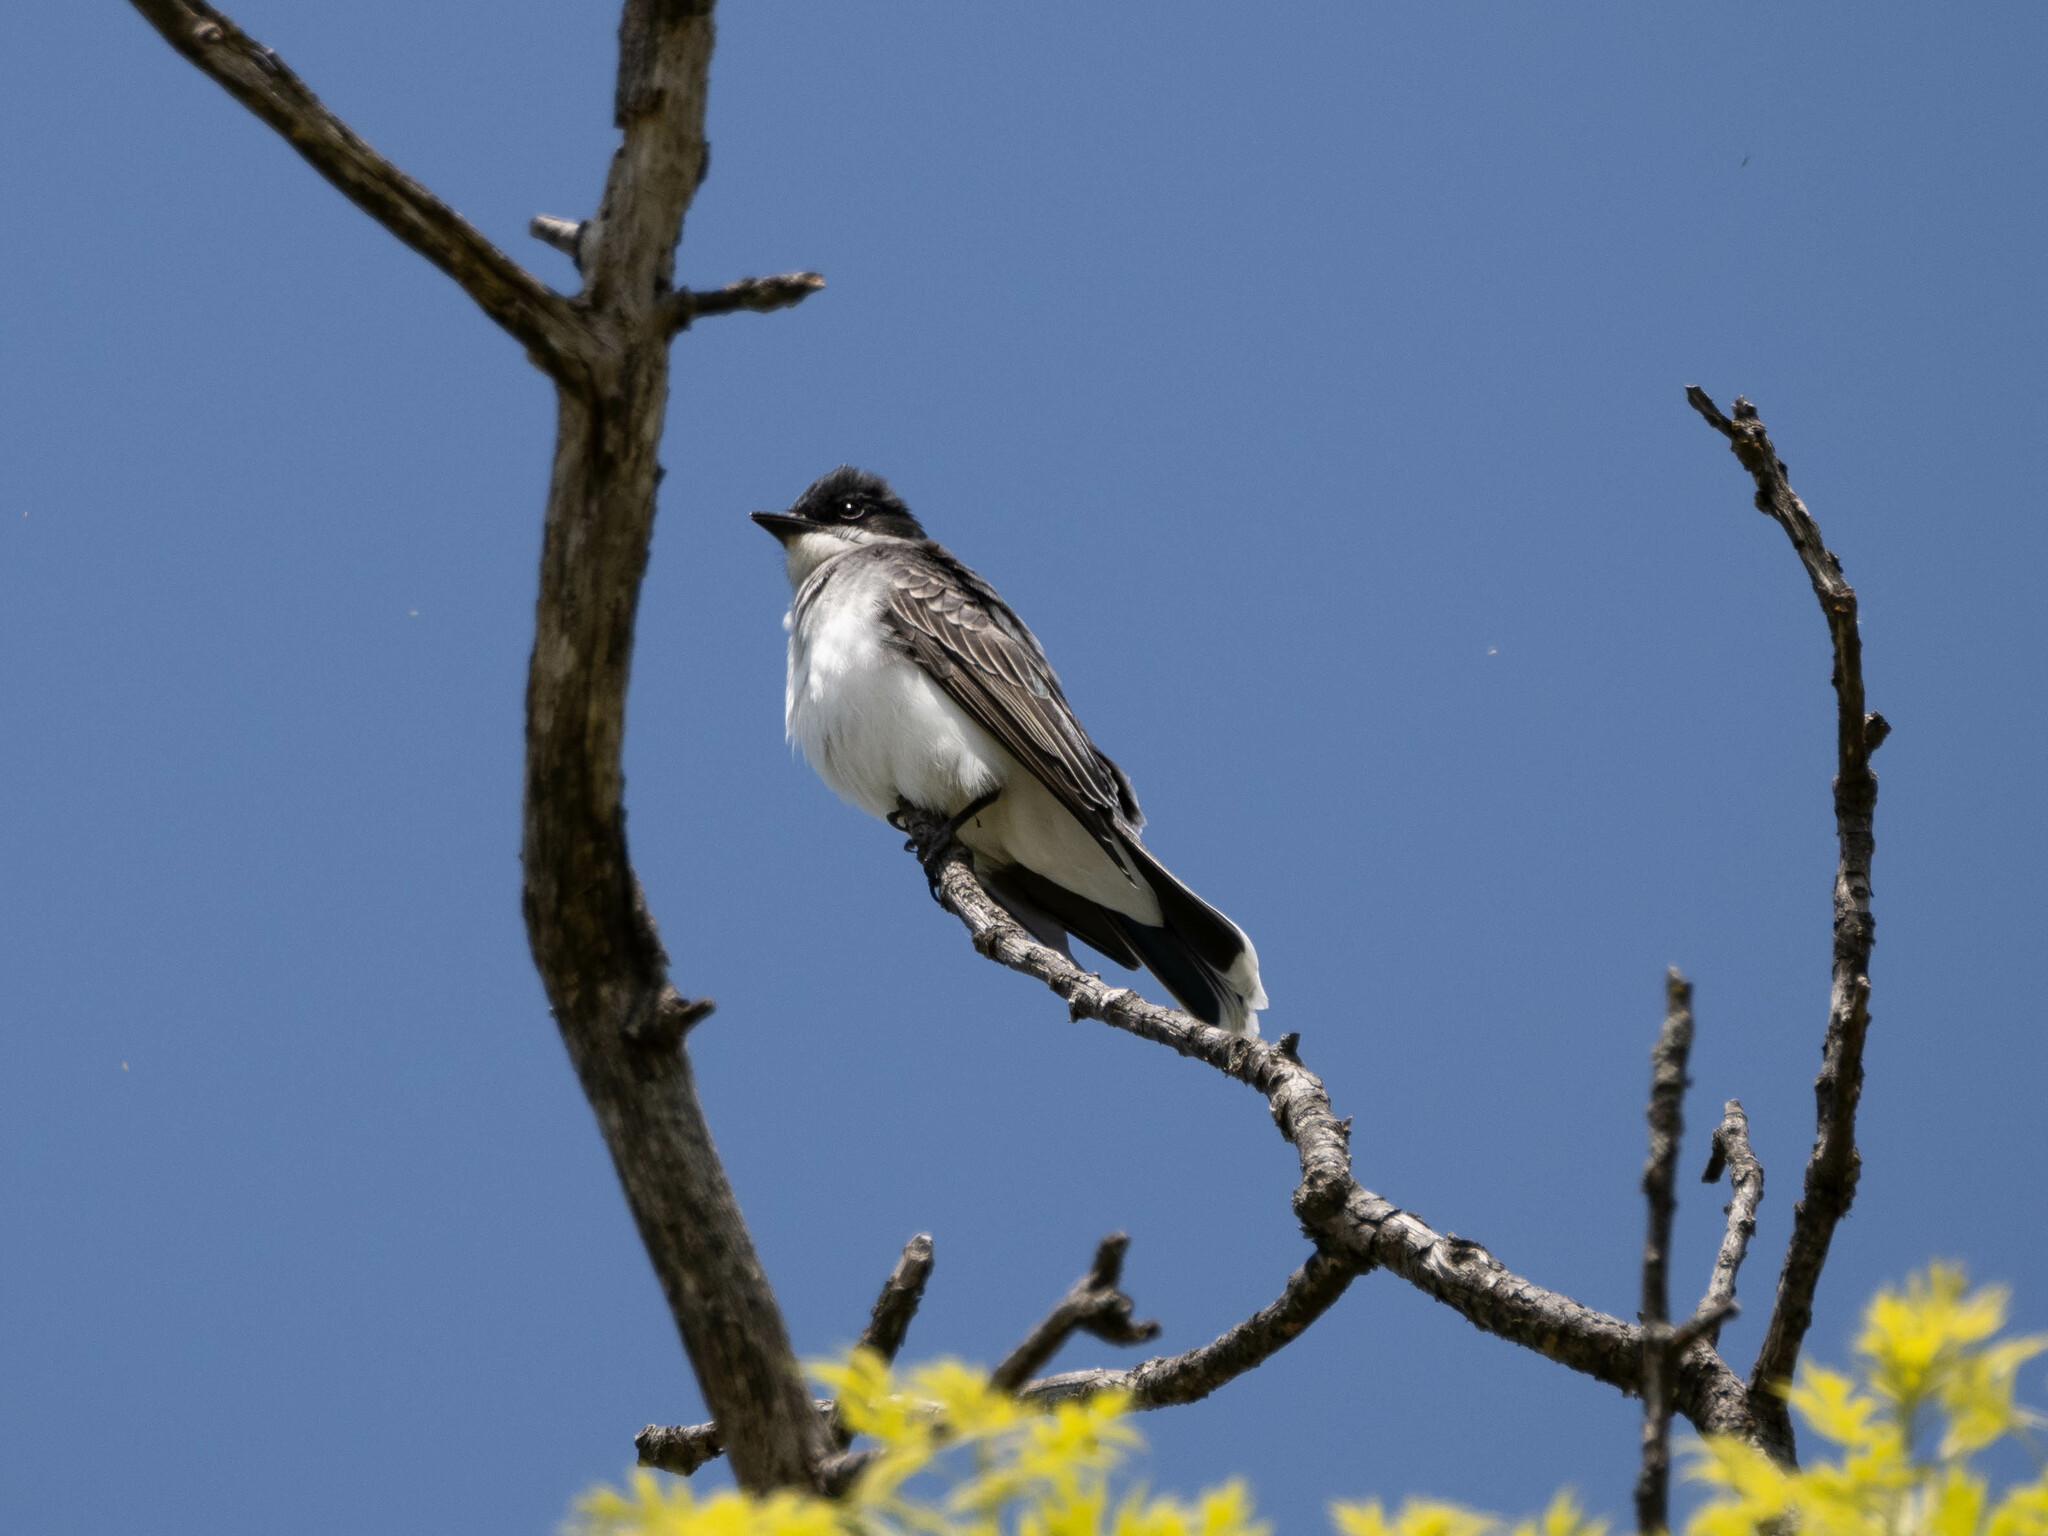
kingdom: Animalia
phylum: Chordata
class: Aves
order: Passeriformes
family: Tyrannidae
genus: Tyrannus
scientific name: Tyrannus tyrannus
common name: Eastern kingbird
